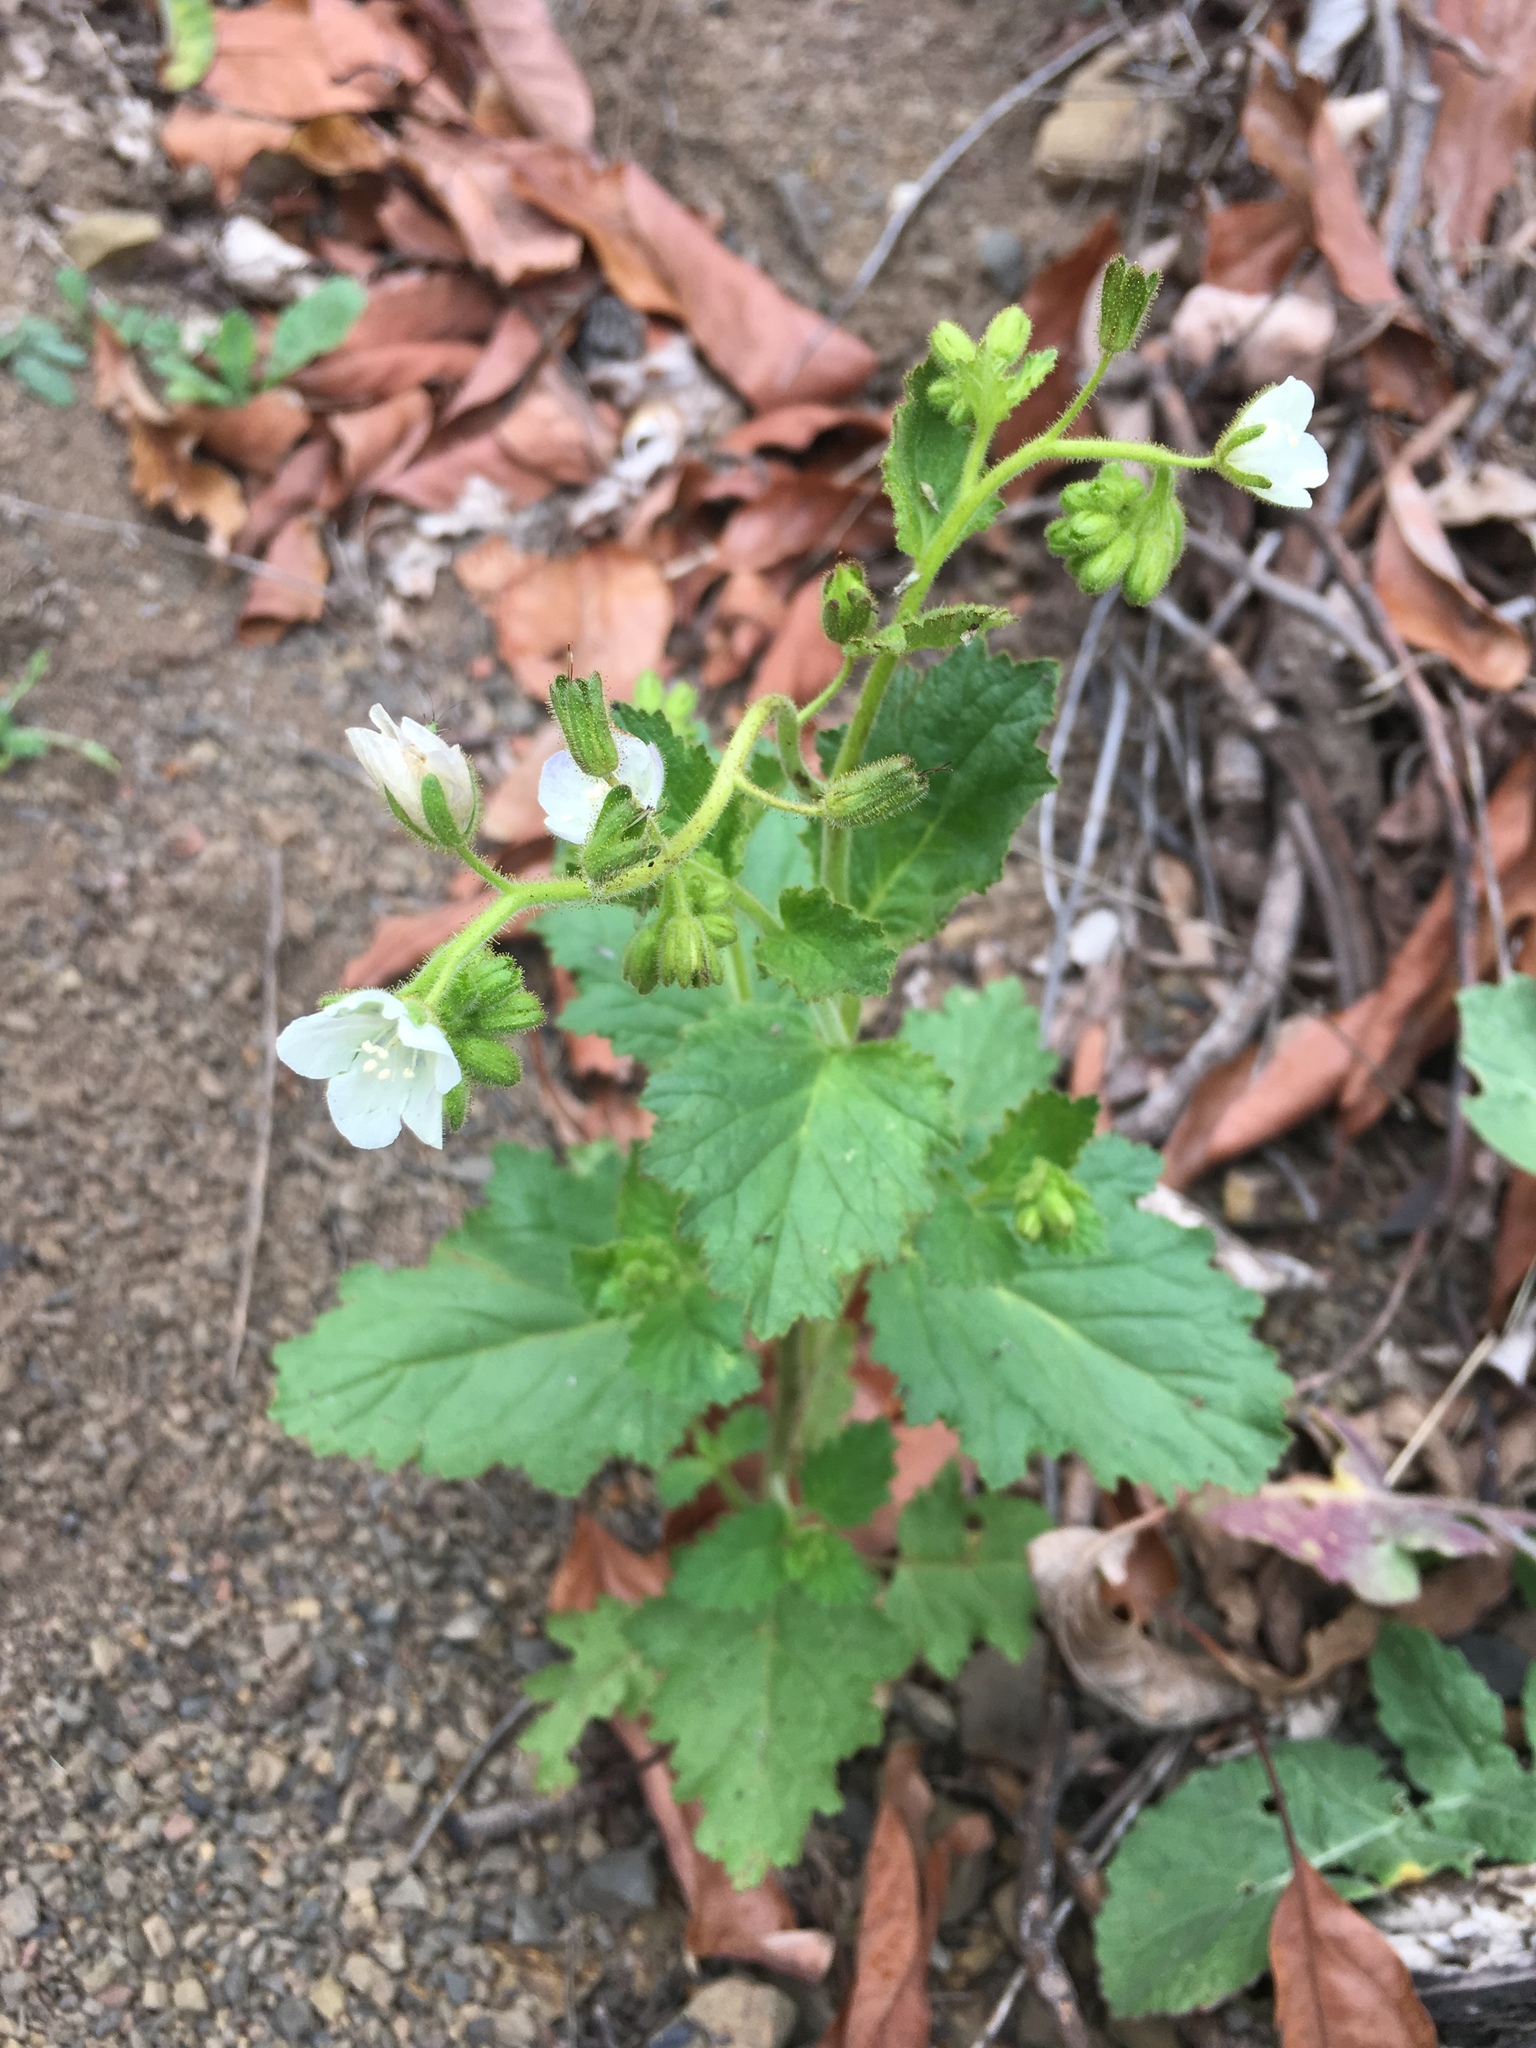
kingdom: Plantae
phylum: Tracheophyta
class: Magnoliopsida
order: Boraginales
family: Hydrophyllaceae
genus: Phacelia
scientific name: Phacelia viscida
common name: Sticky phacelia
